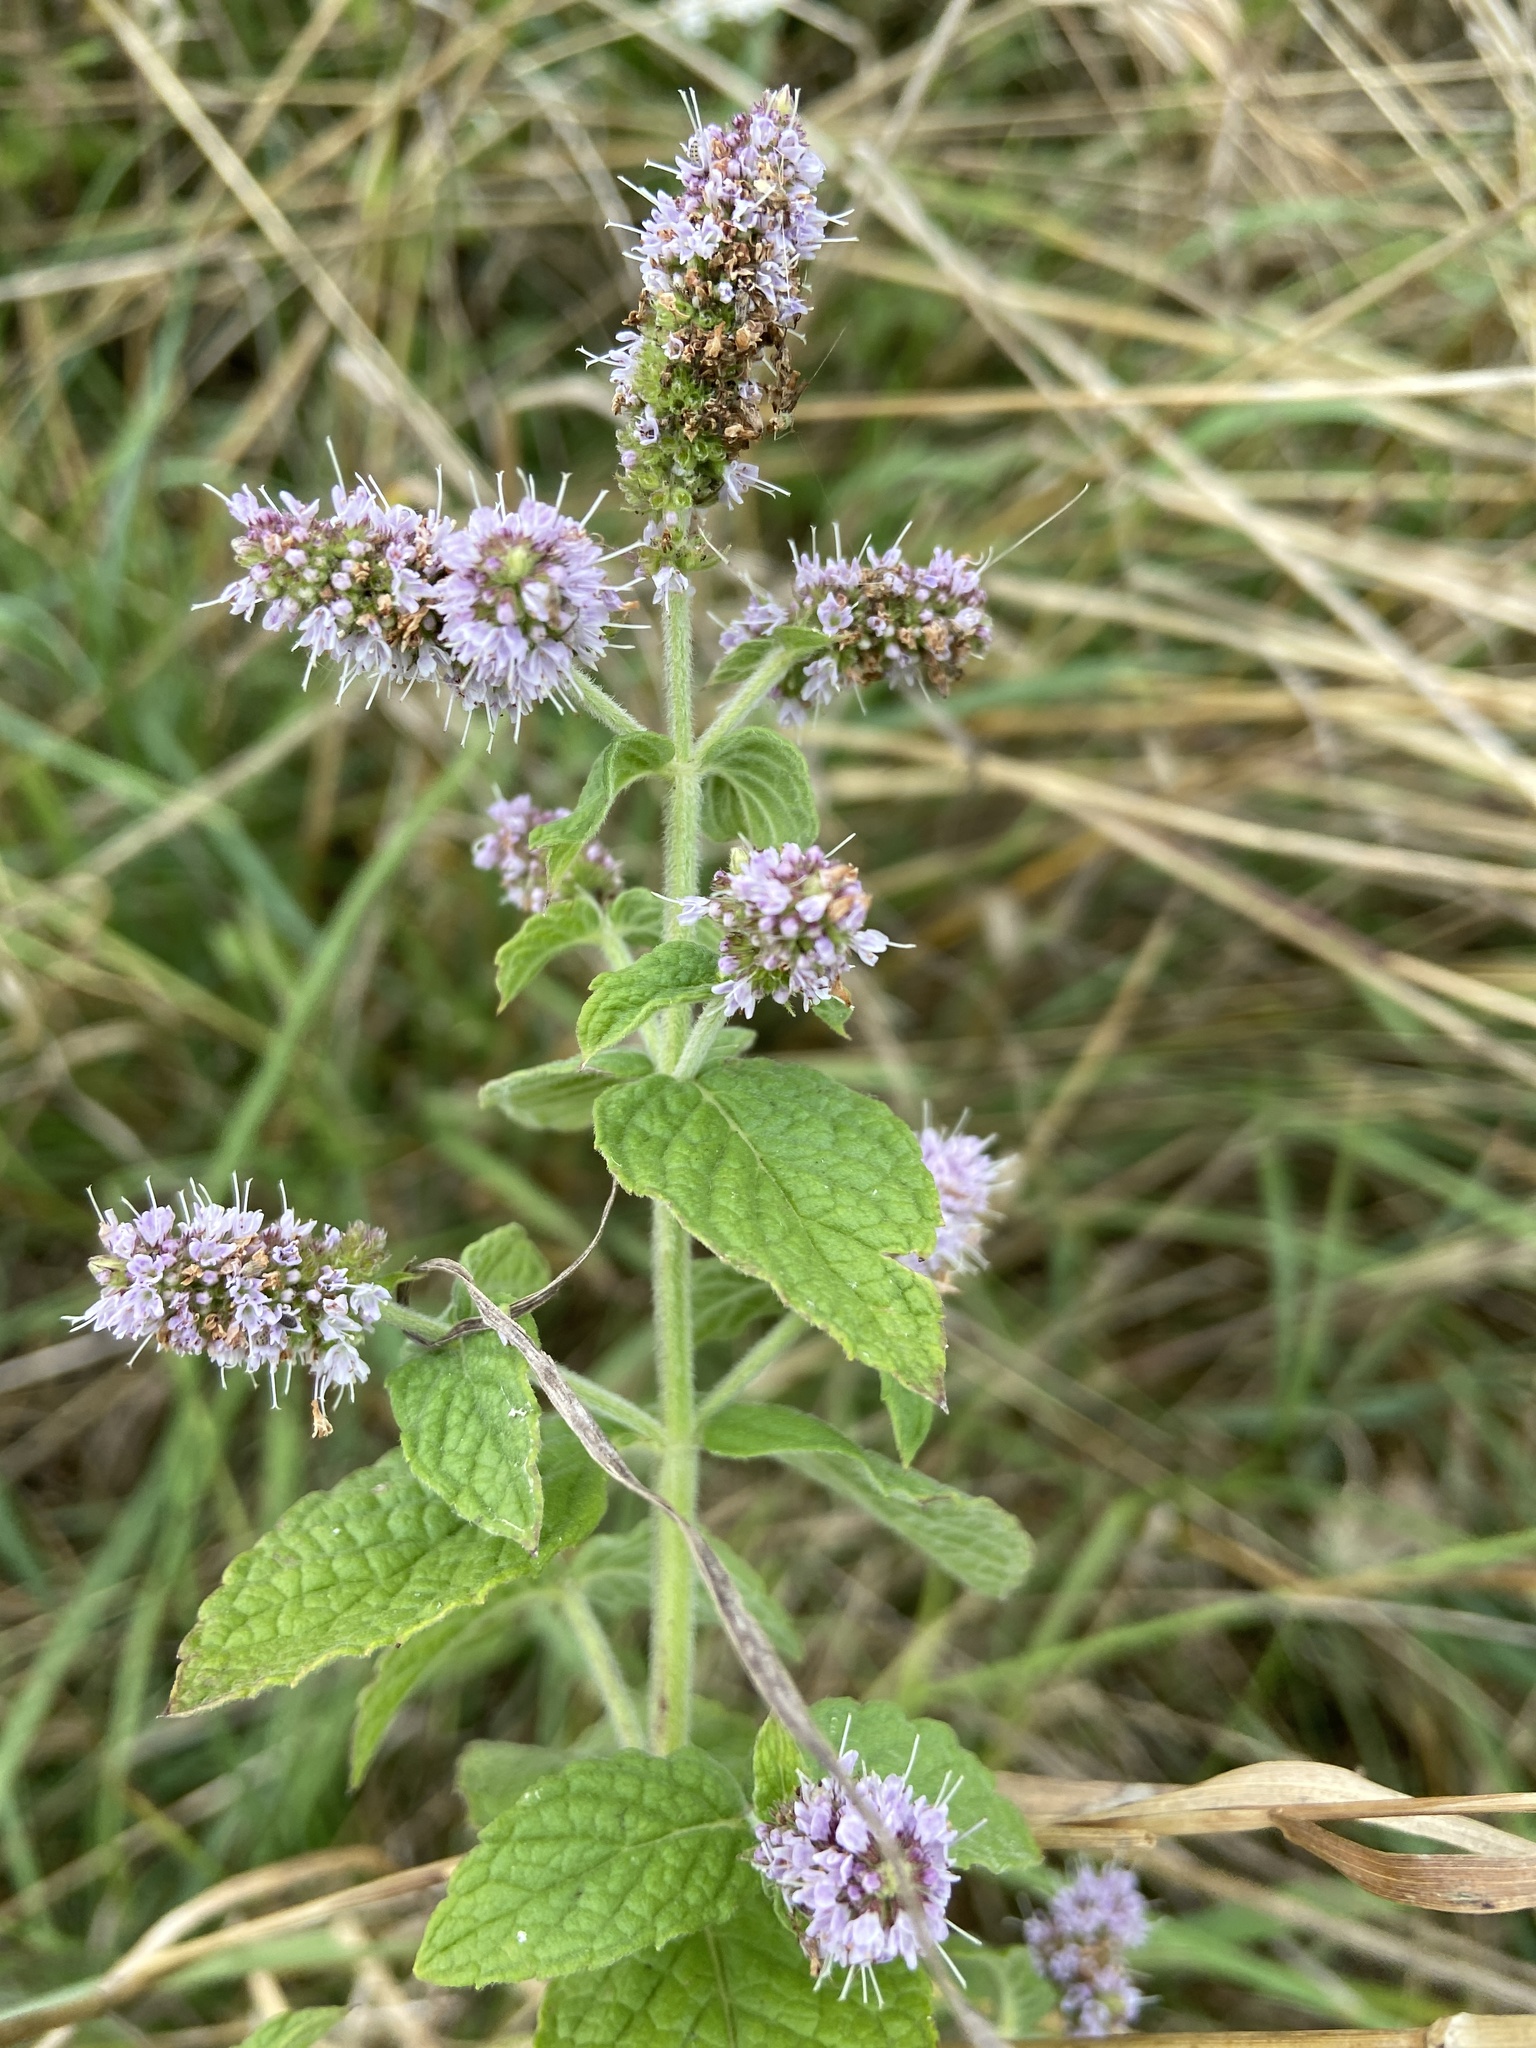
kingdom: Plantae
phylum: Tracheophyta
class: Magnoliopsida
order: Lamiales
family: Lamiaceae
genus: Mentha
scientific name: Mentha longifolia
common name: Horse mint
